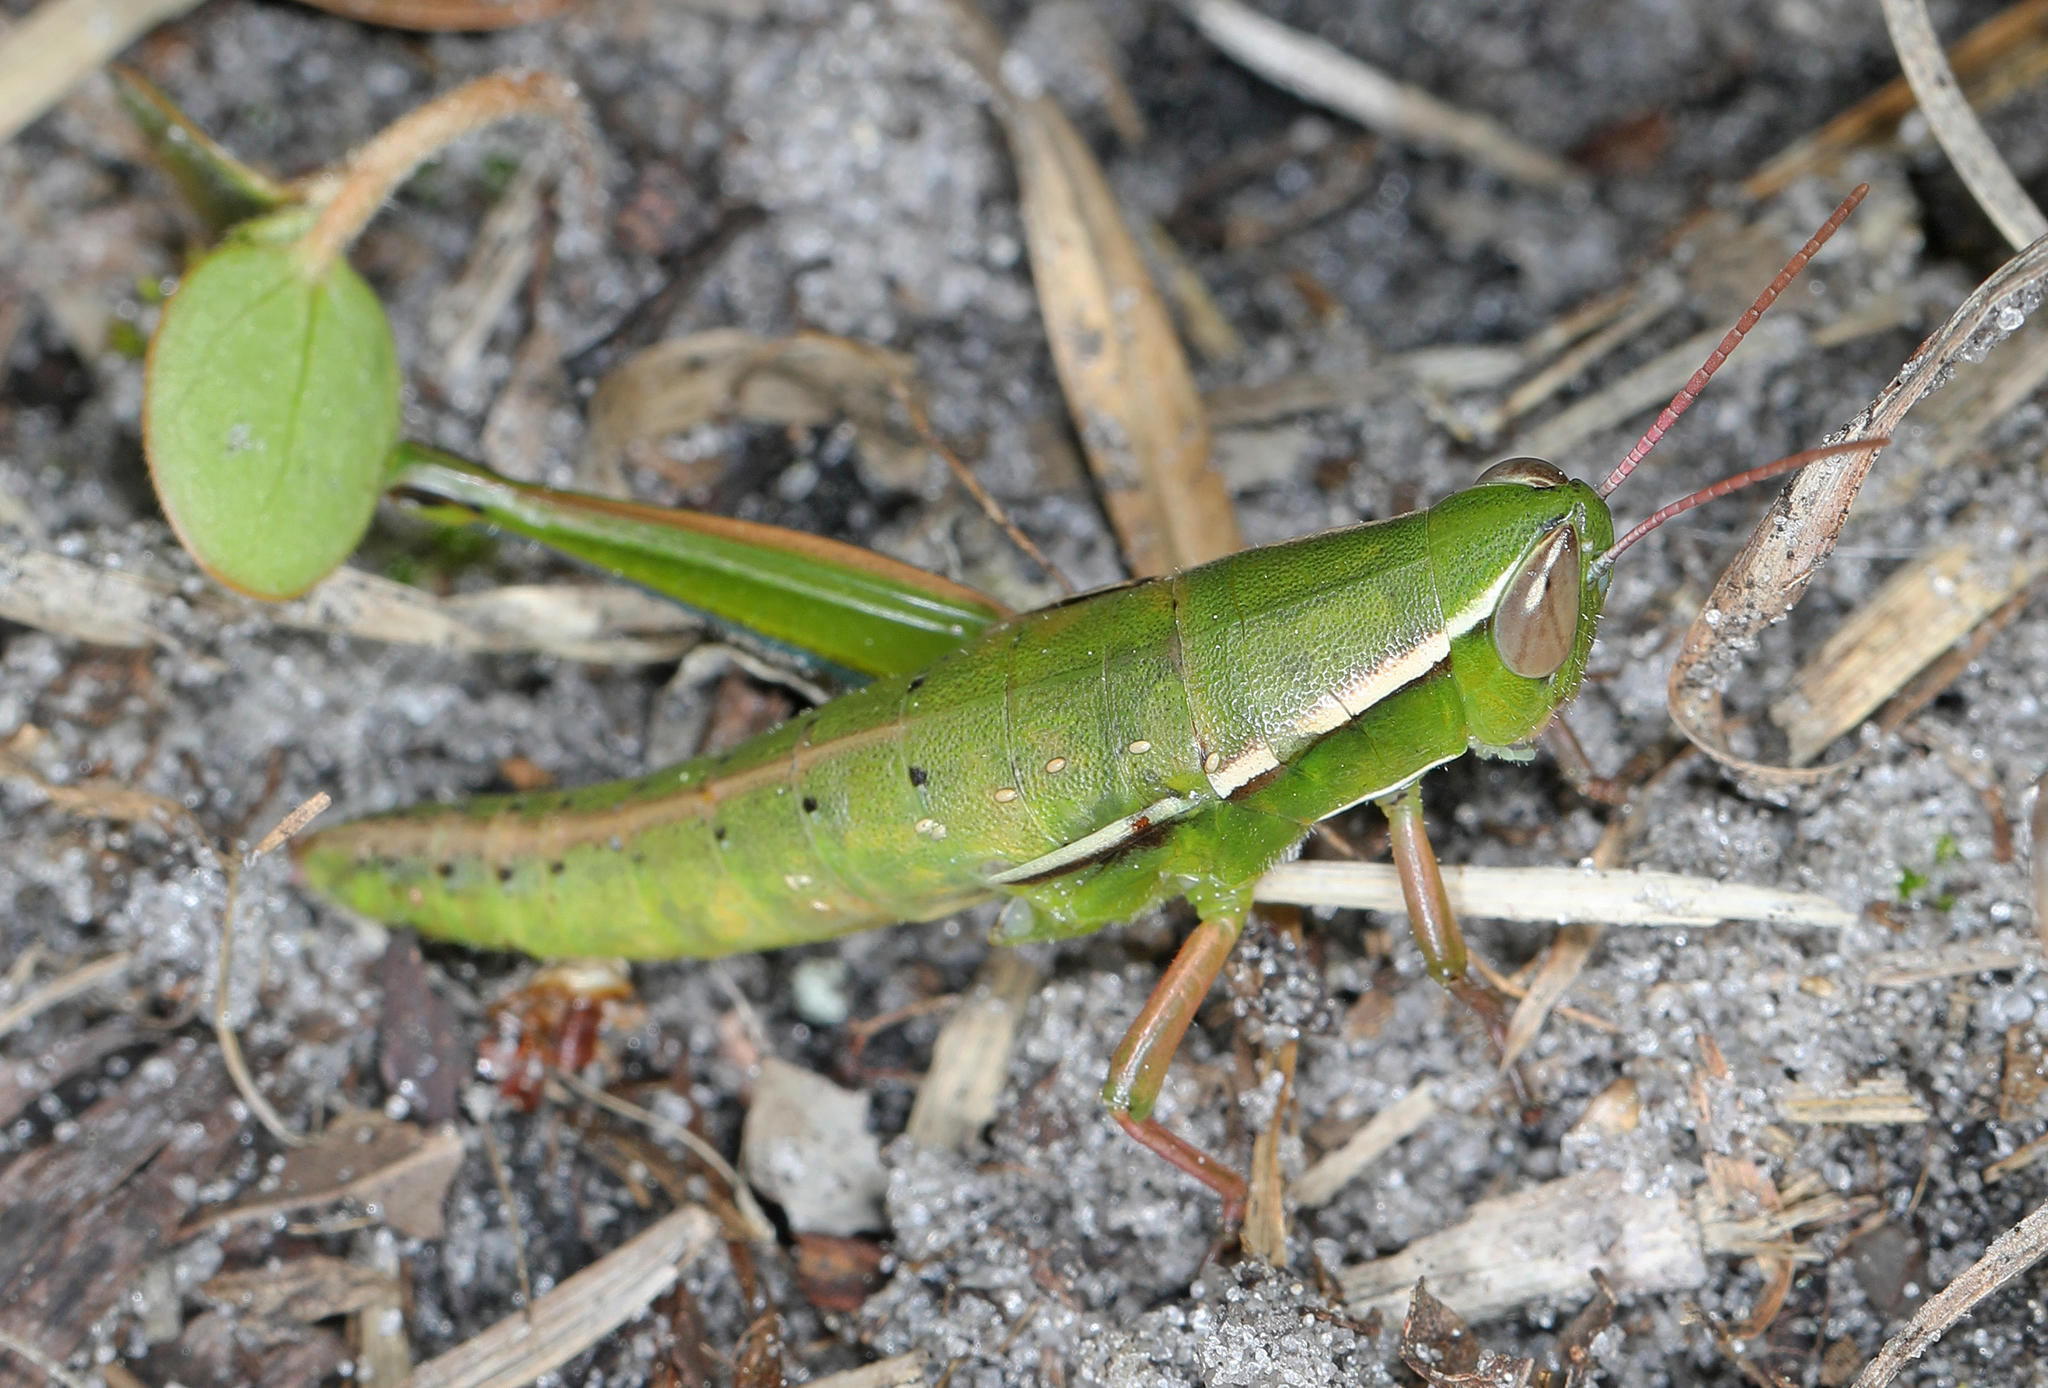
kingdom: Animalia
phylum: Arthropoda
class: Insecta
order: Orthoptera
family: Acrididae
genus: Aptenopedes
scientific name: Aptenopedes sphenarioides
